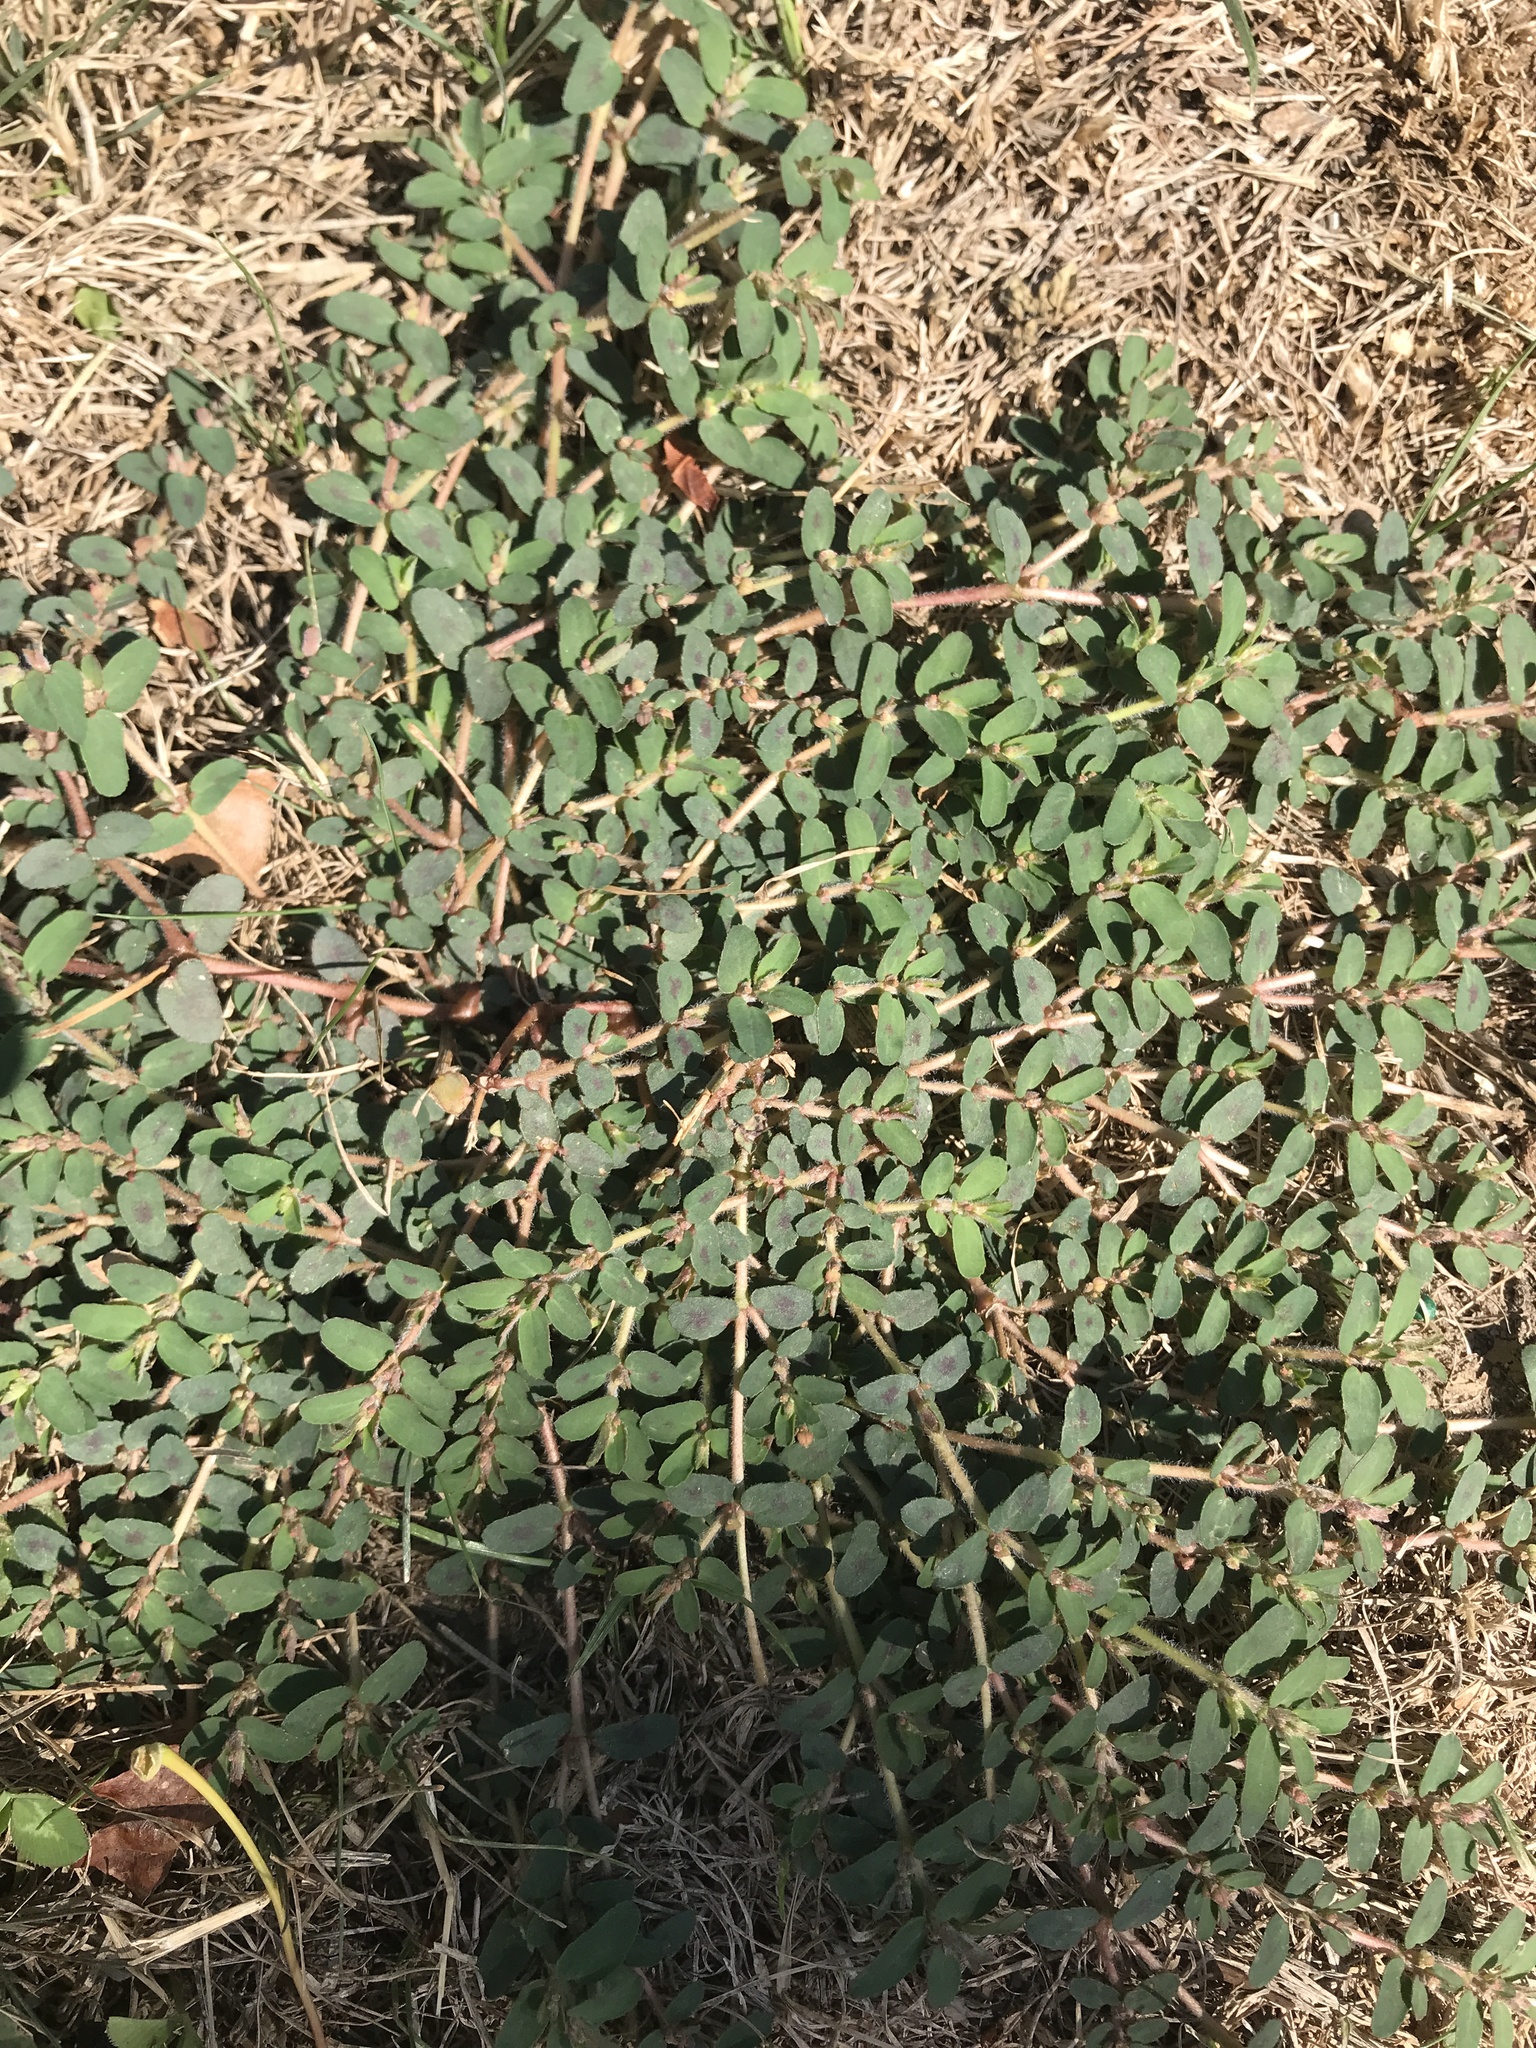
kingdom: Plantae
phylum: Tracheophyta
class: Magnoliopsida
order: Malpighiales
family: Euphorbiaceae
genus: Euphorbia
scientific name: Euphorbia maculata
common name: Spotted spurge
